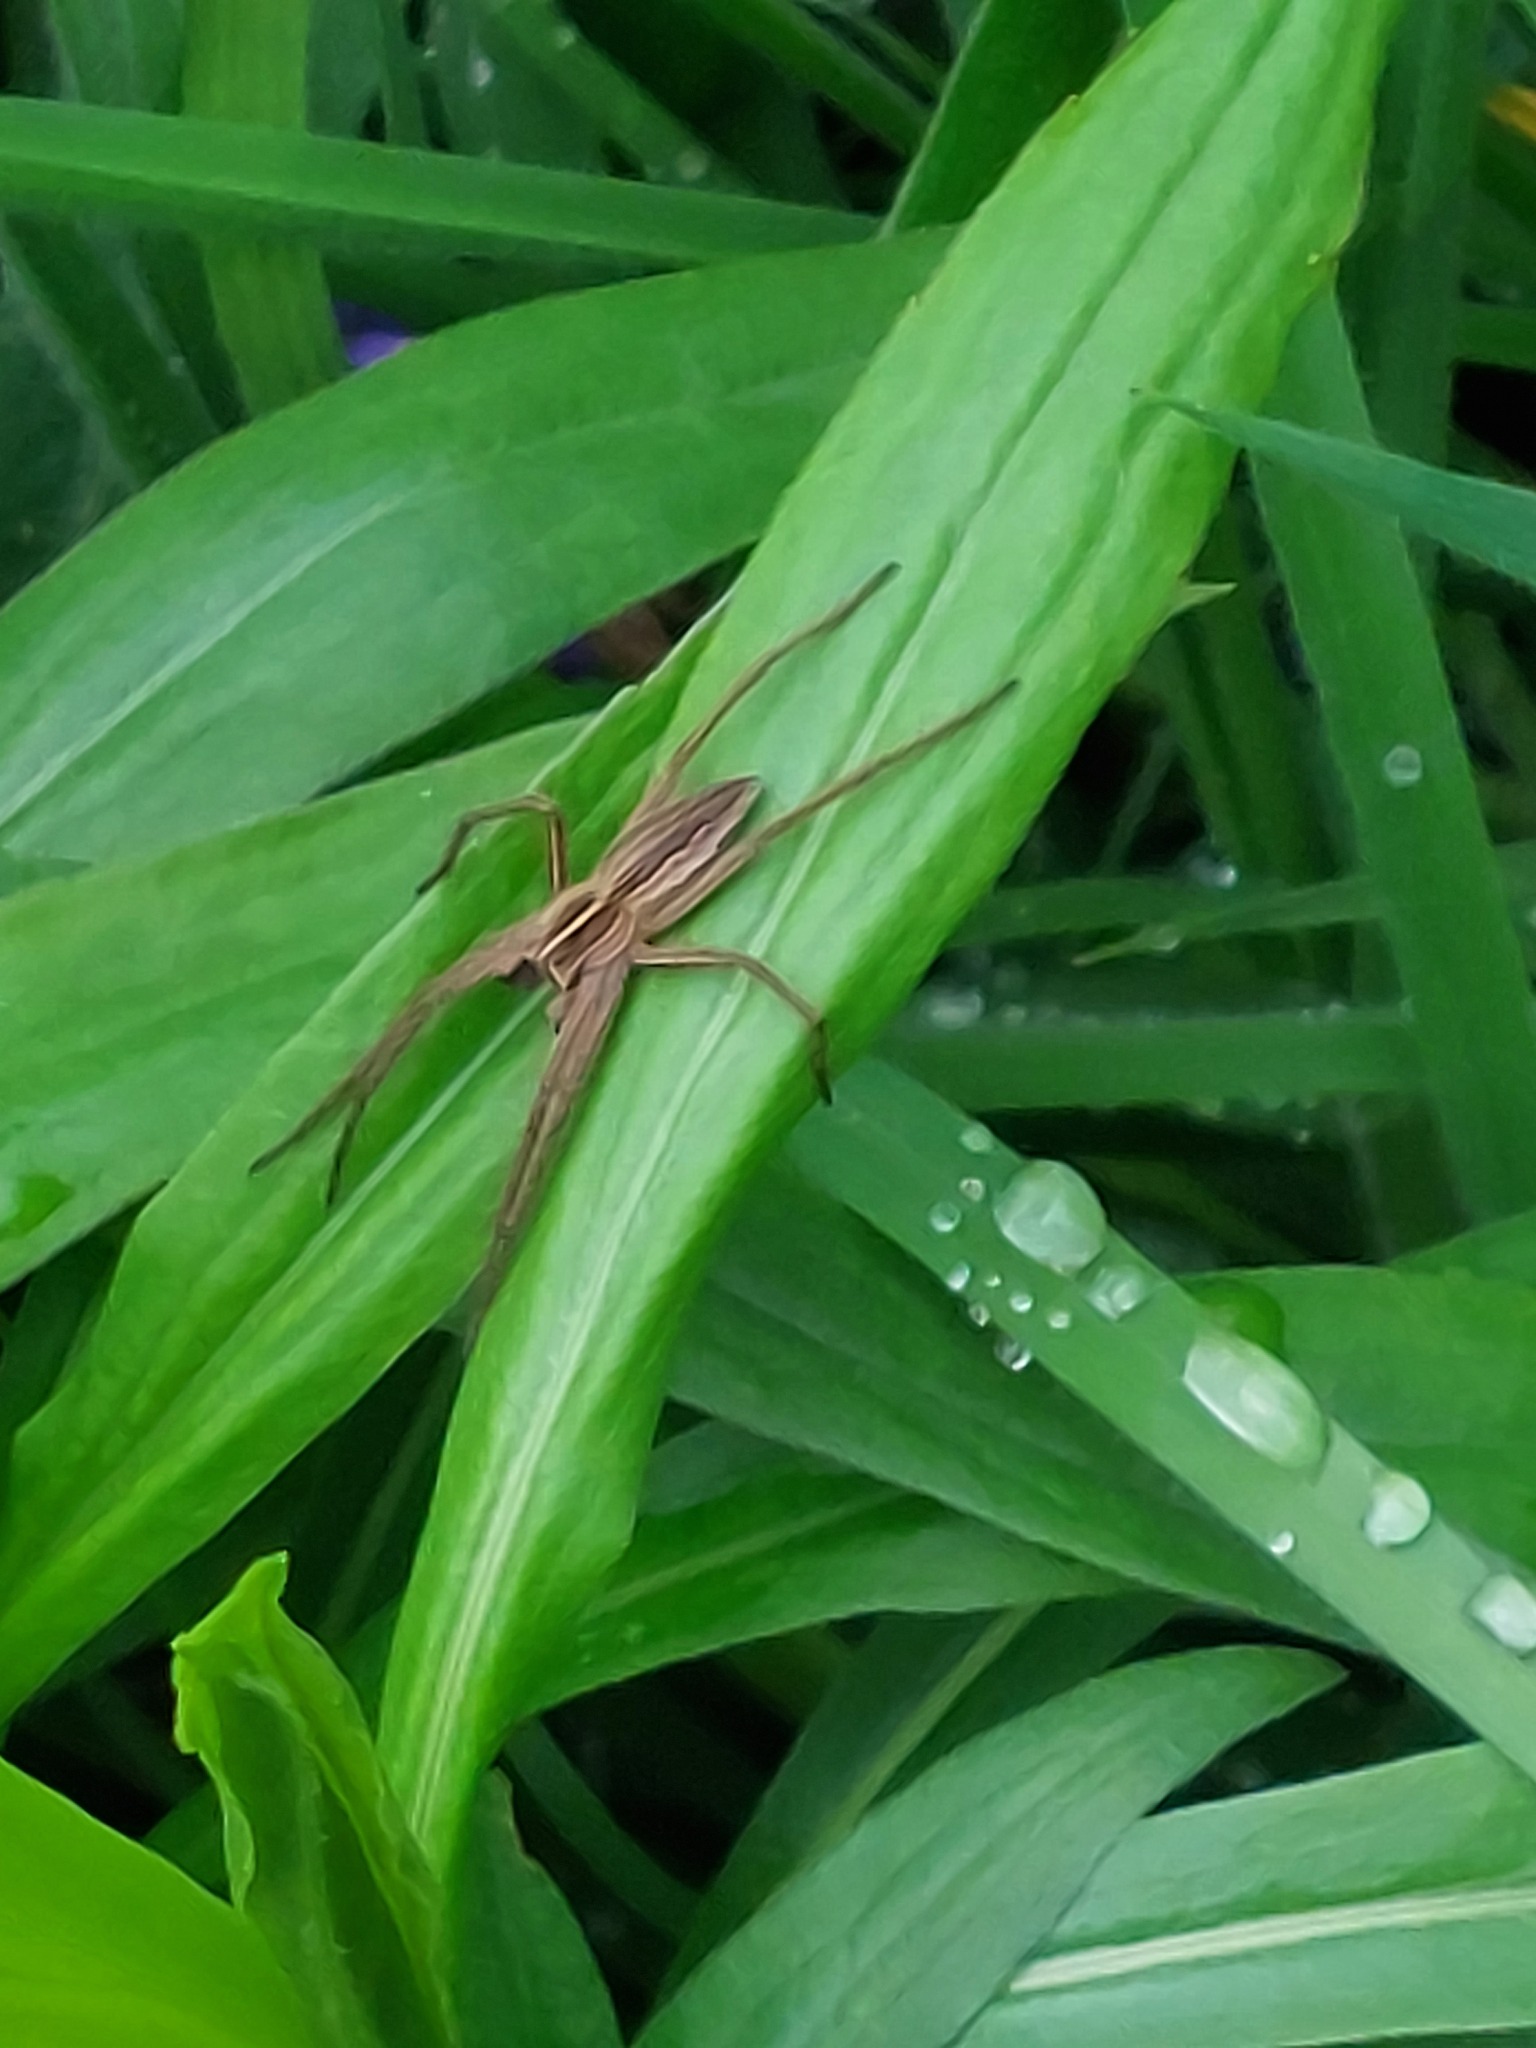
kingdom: Animalia
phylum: Arthropoda
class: Arachnida
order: Araneae
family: Pisauridae
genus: Pisaura
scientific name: Pisaura mirabilis
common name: Tent spider
